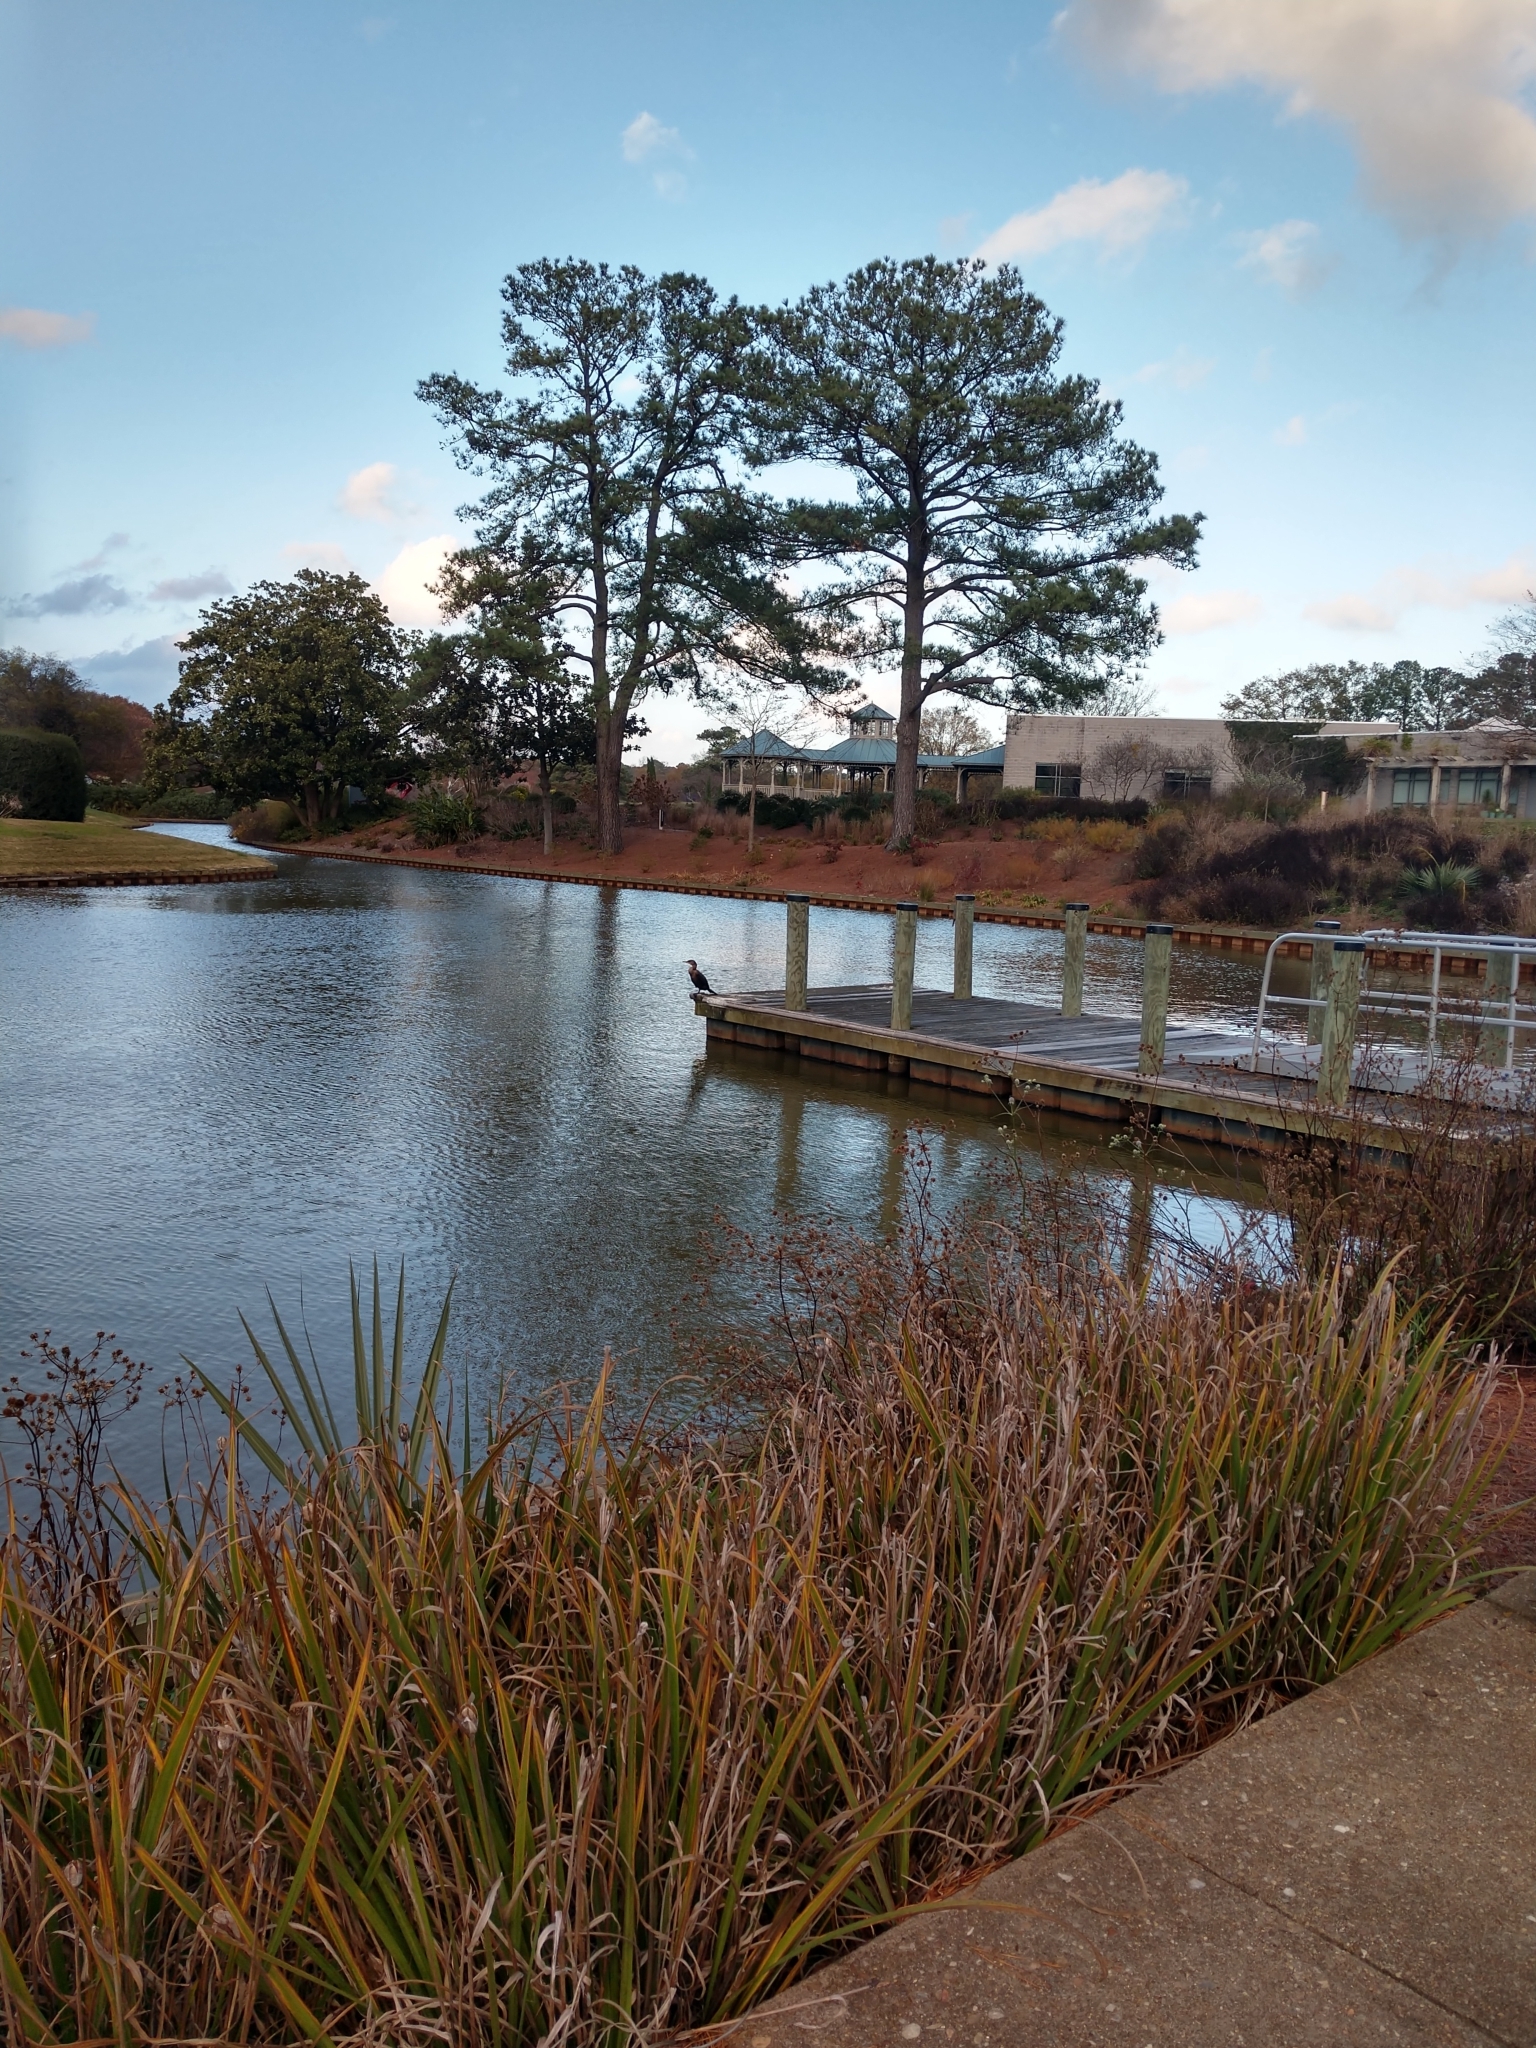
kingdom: Animalia
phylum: Chordata
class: Aves
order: Suliformes
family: Phalacrocoracidae
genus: Phalacrocorax
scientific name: Phalacrocorax auritus
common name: Double-crested cormorant
